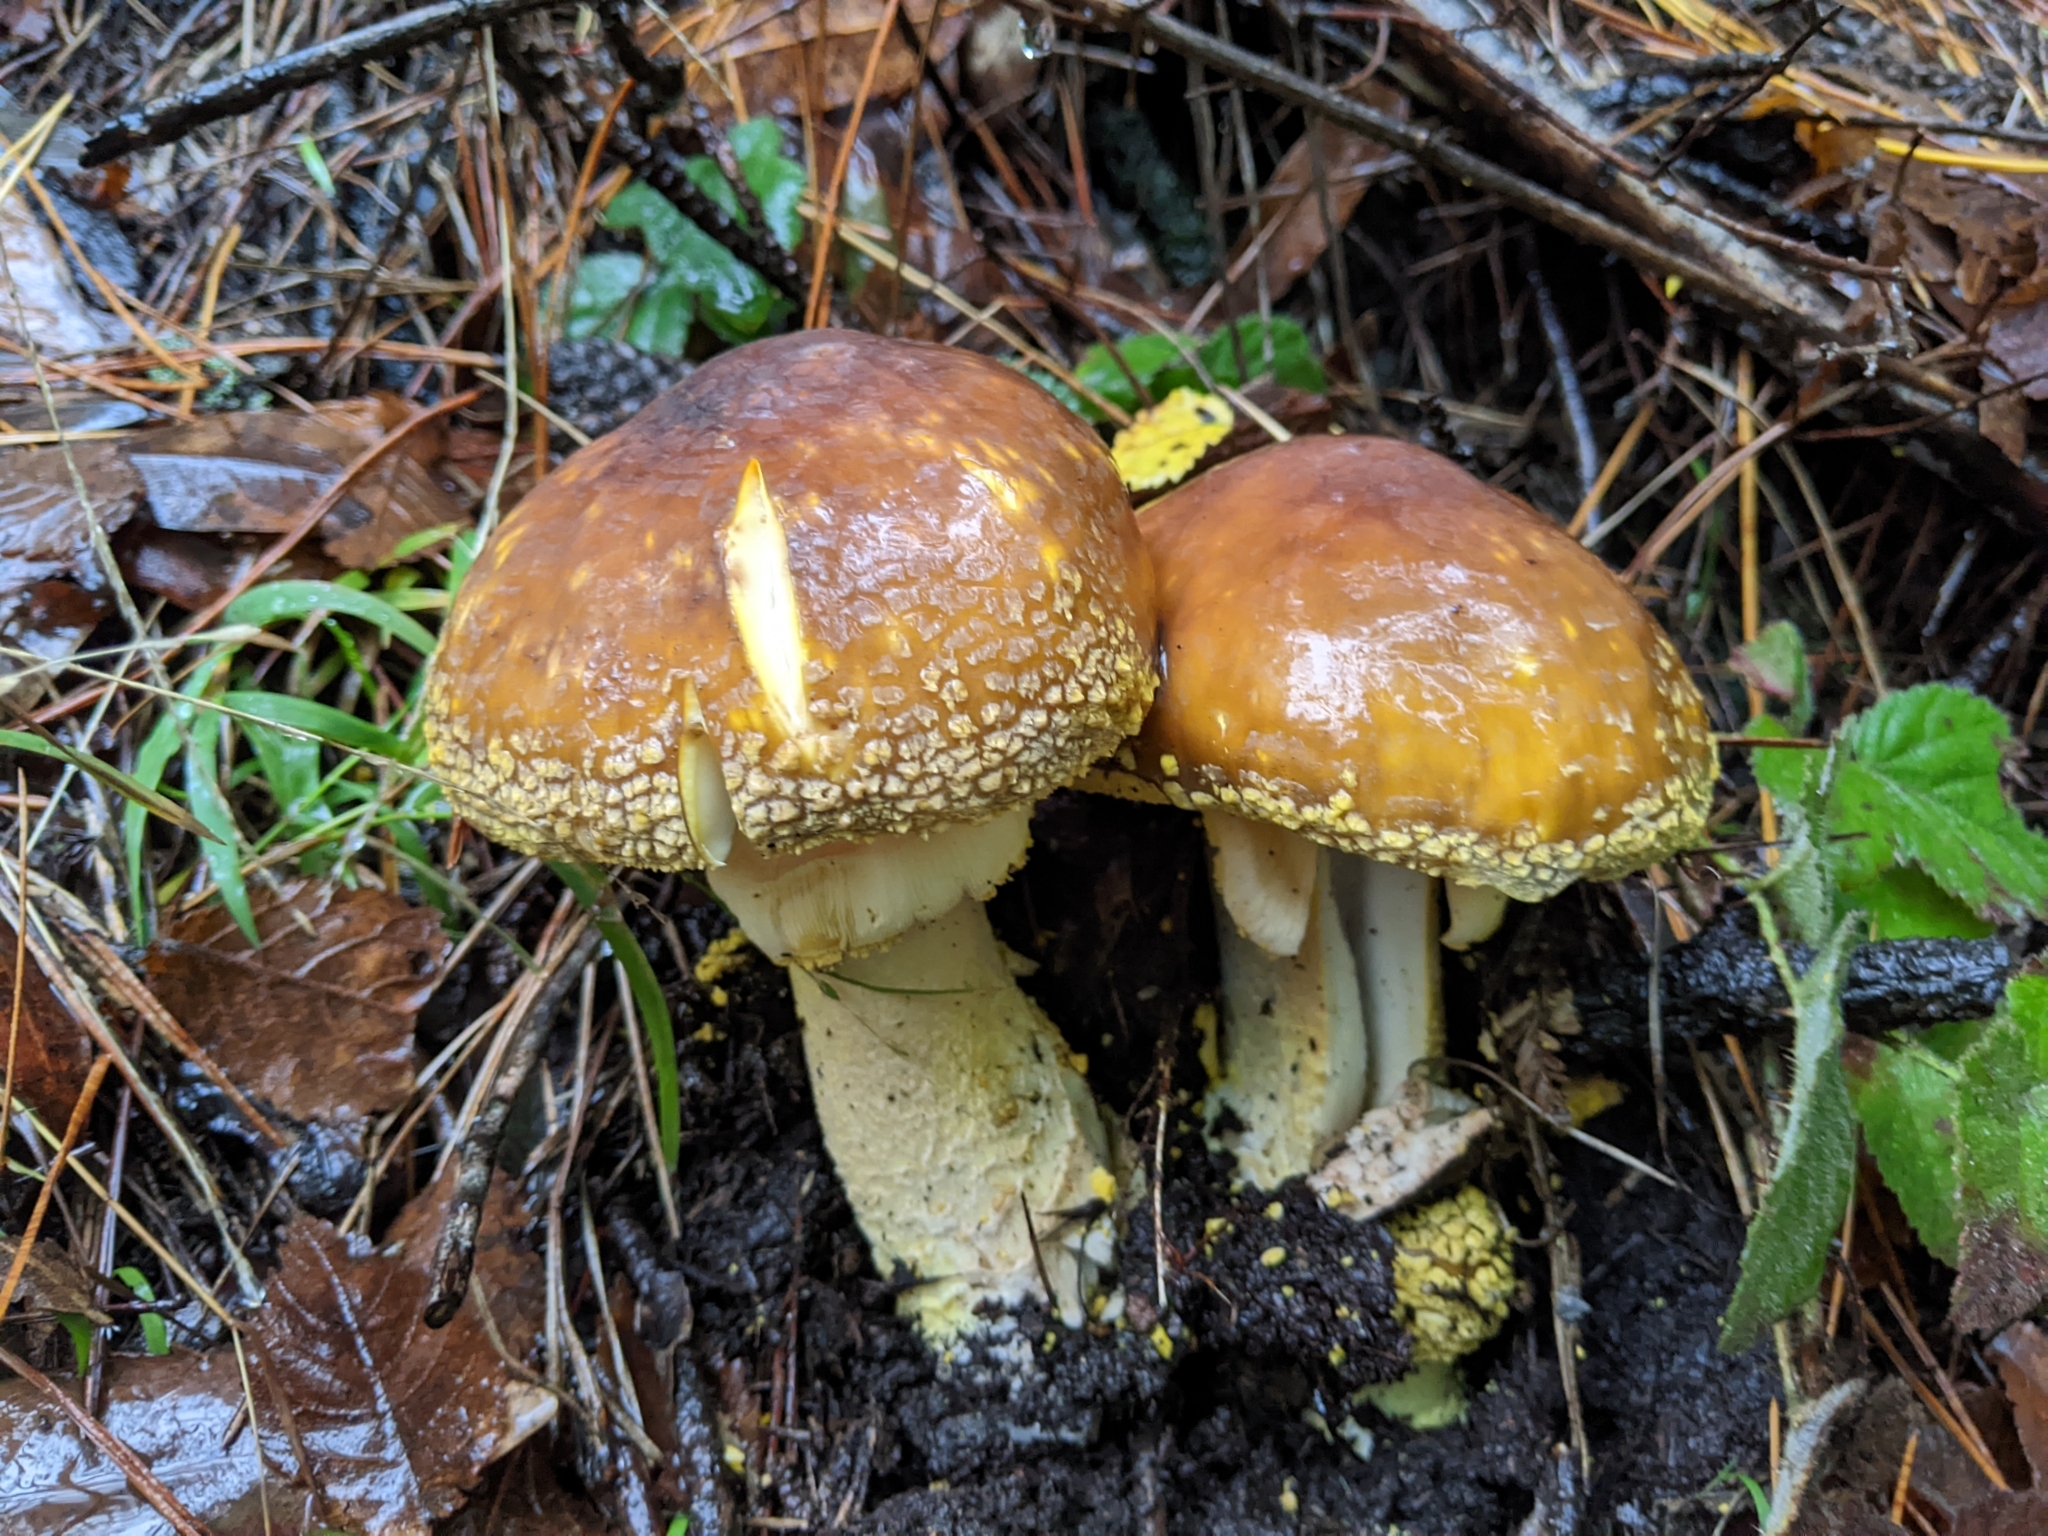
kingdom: Fungi
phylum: Basidiomycota
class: Agaricomycetes
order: Agaricales
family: Amanitaceae
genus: Amanita
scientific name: Amanita augusta
